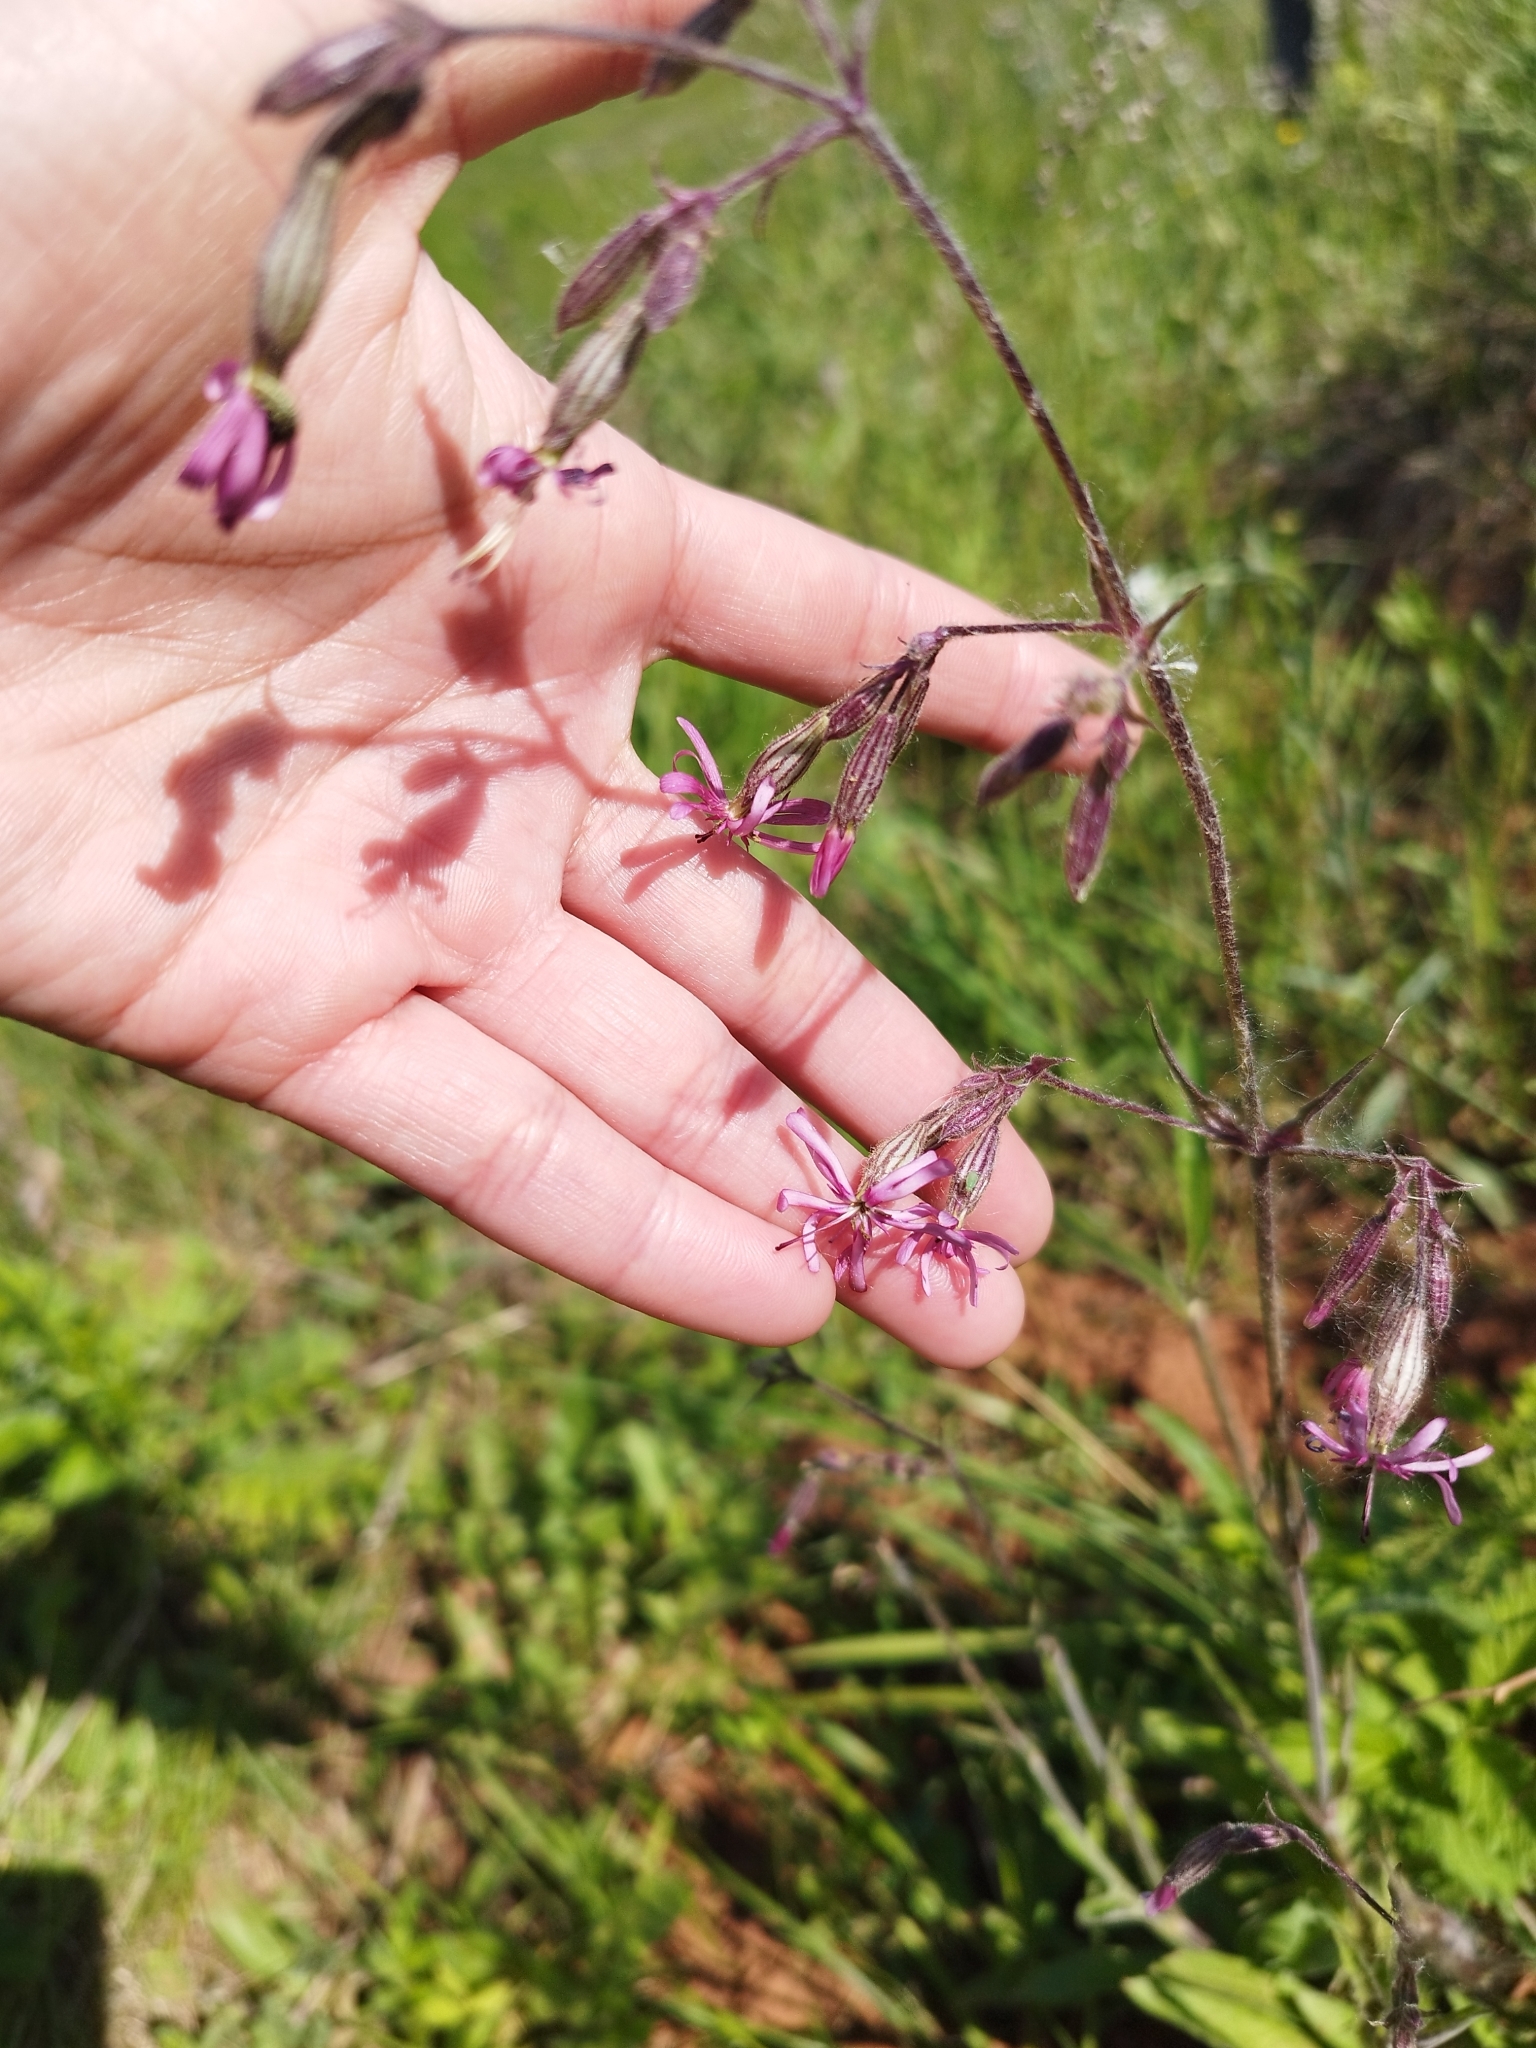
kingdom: Plantae
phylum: Tracheophyta
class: Magnoliopsida
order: Caryophyllales
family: Caryophyllaceae
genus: Silene
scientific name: Silene flos-cuculi
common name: Ragged-robin
